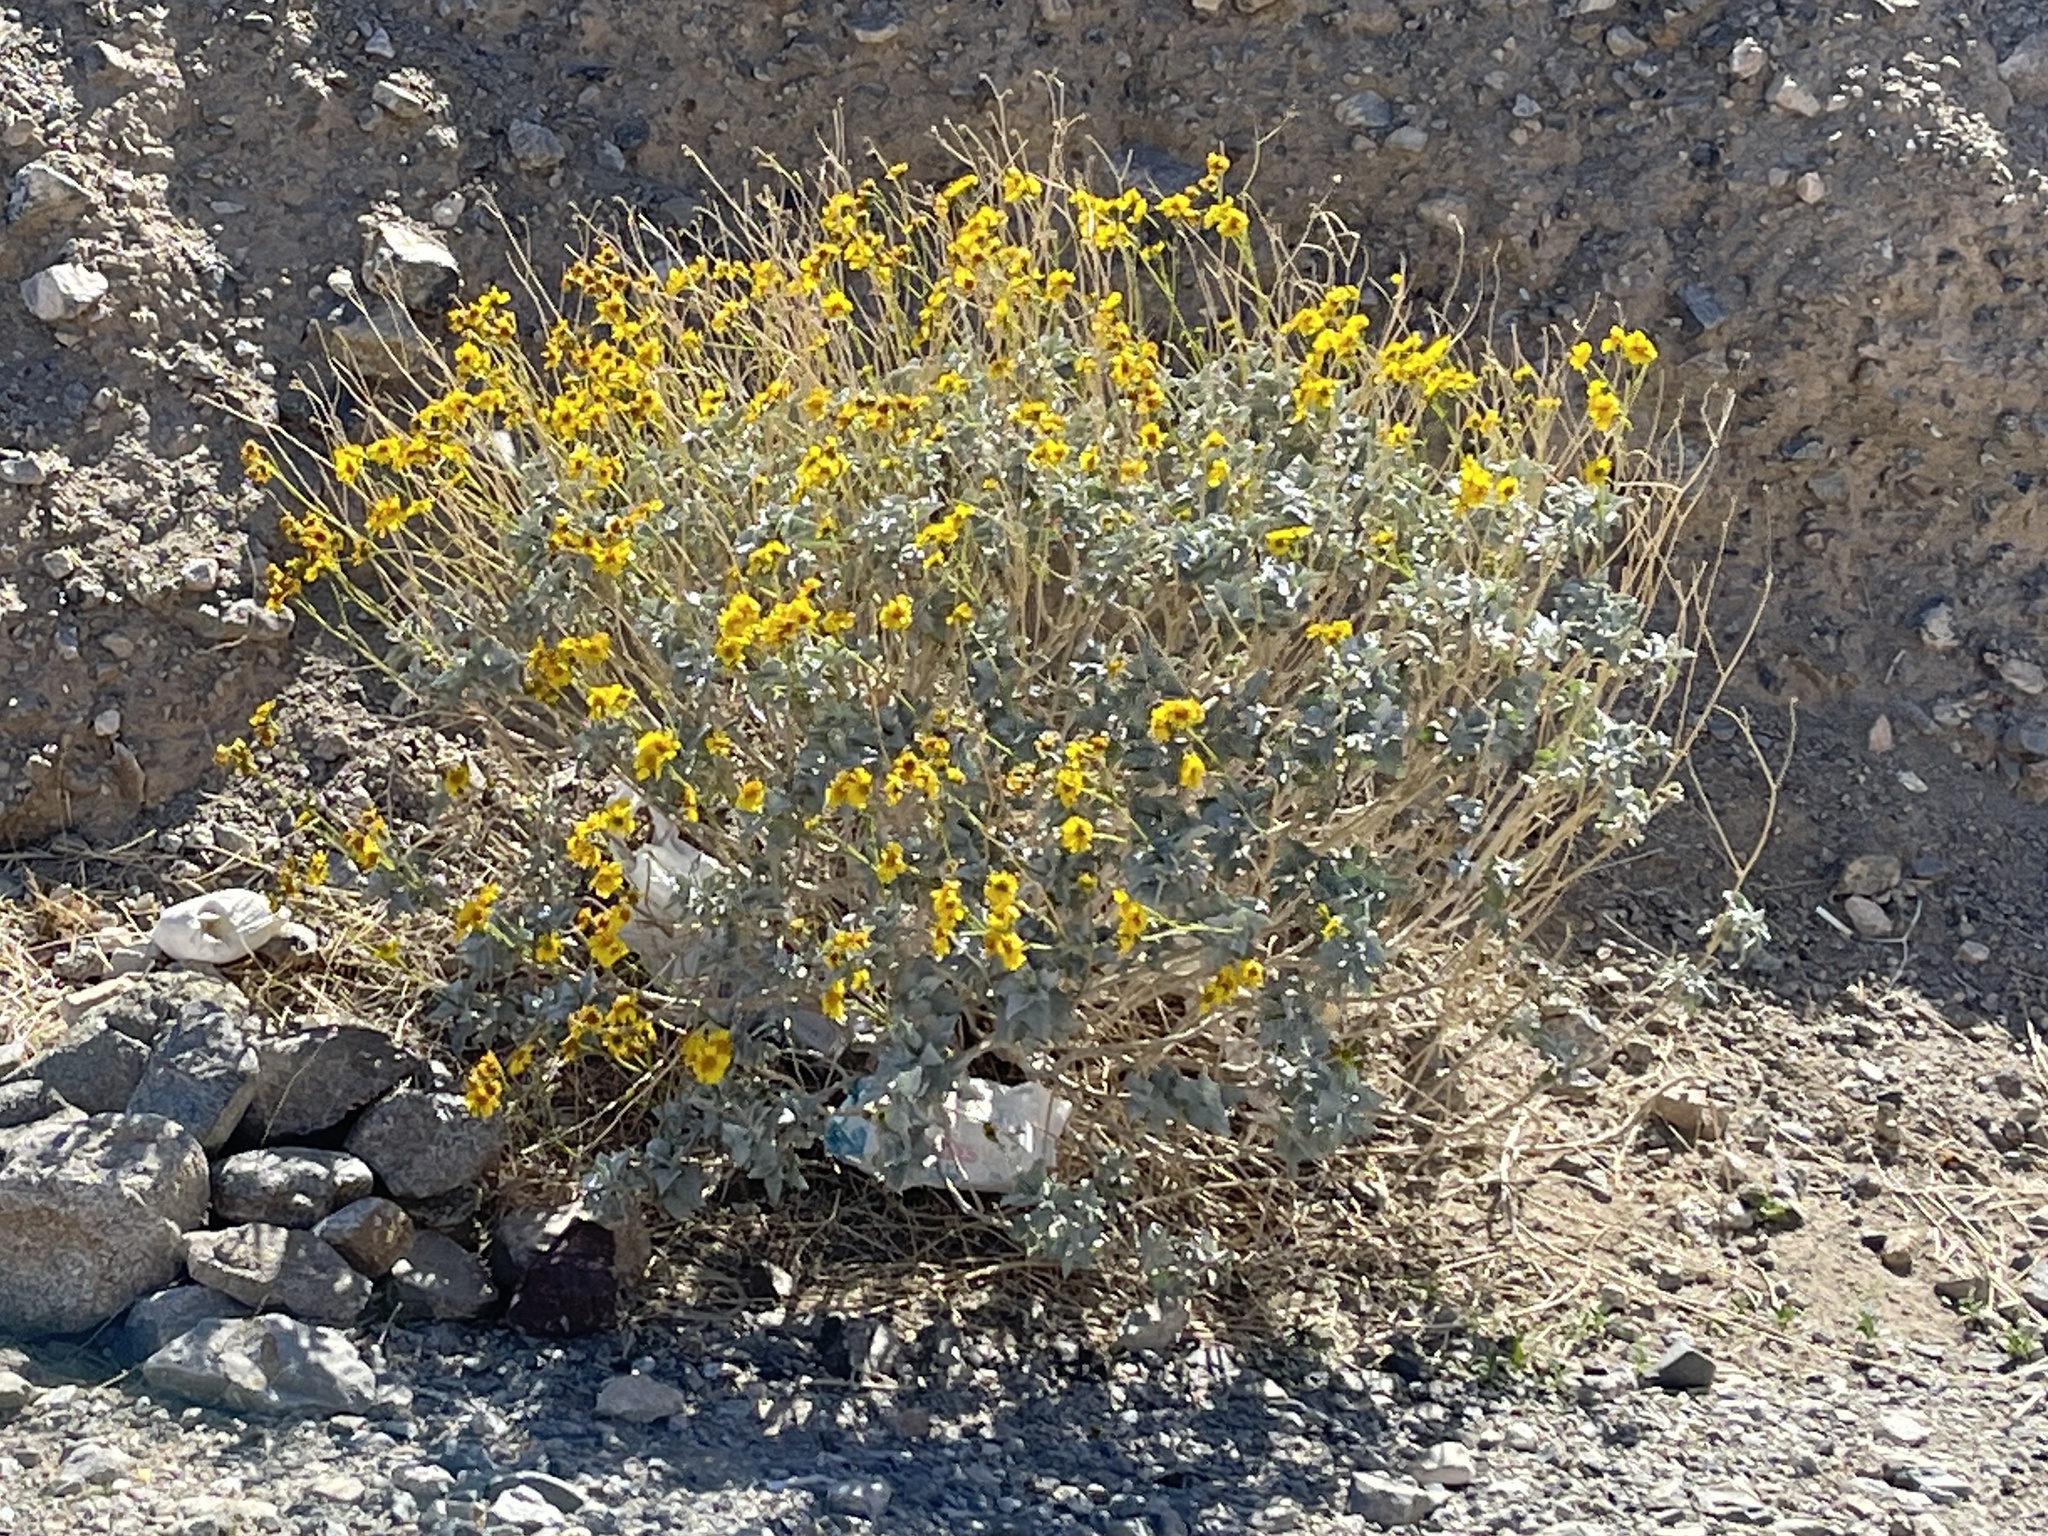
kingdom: Plantae
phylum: Tracheophyta
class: Magnoliopsida
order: Asterales
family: Asteraceae
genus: Encelia
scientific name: Encelia farinosa
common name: Brittlebush
